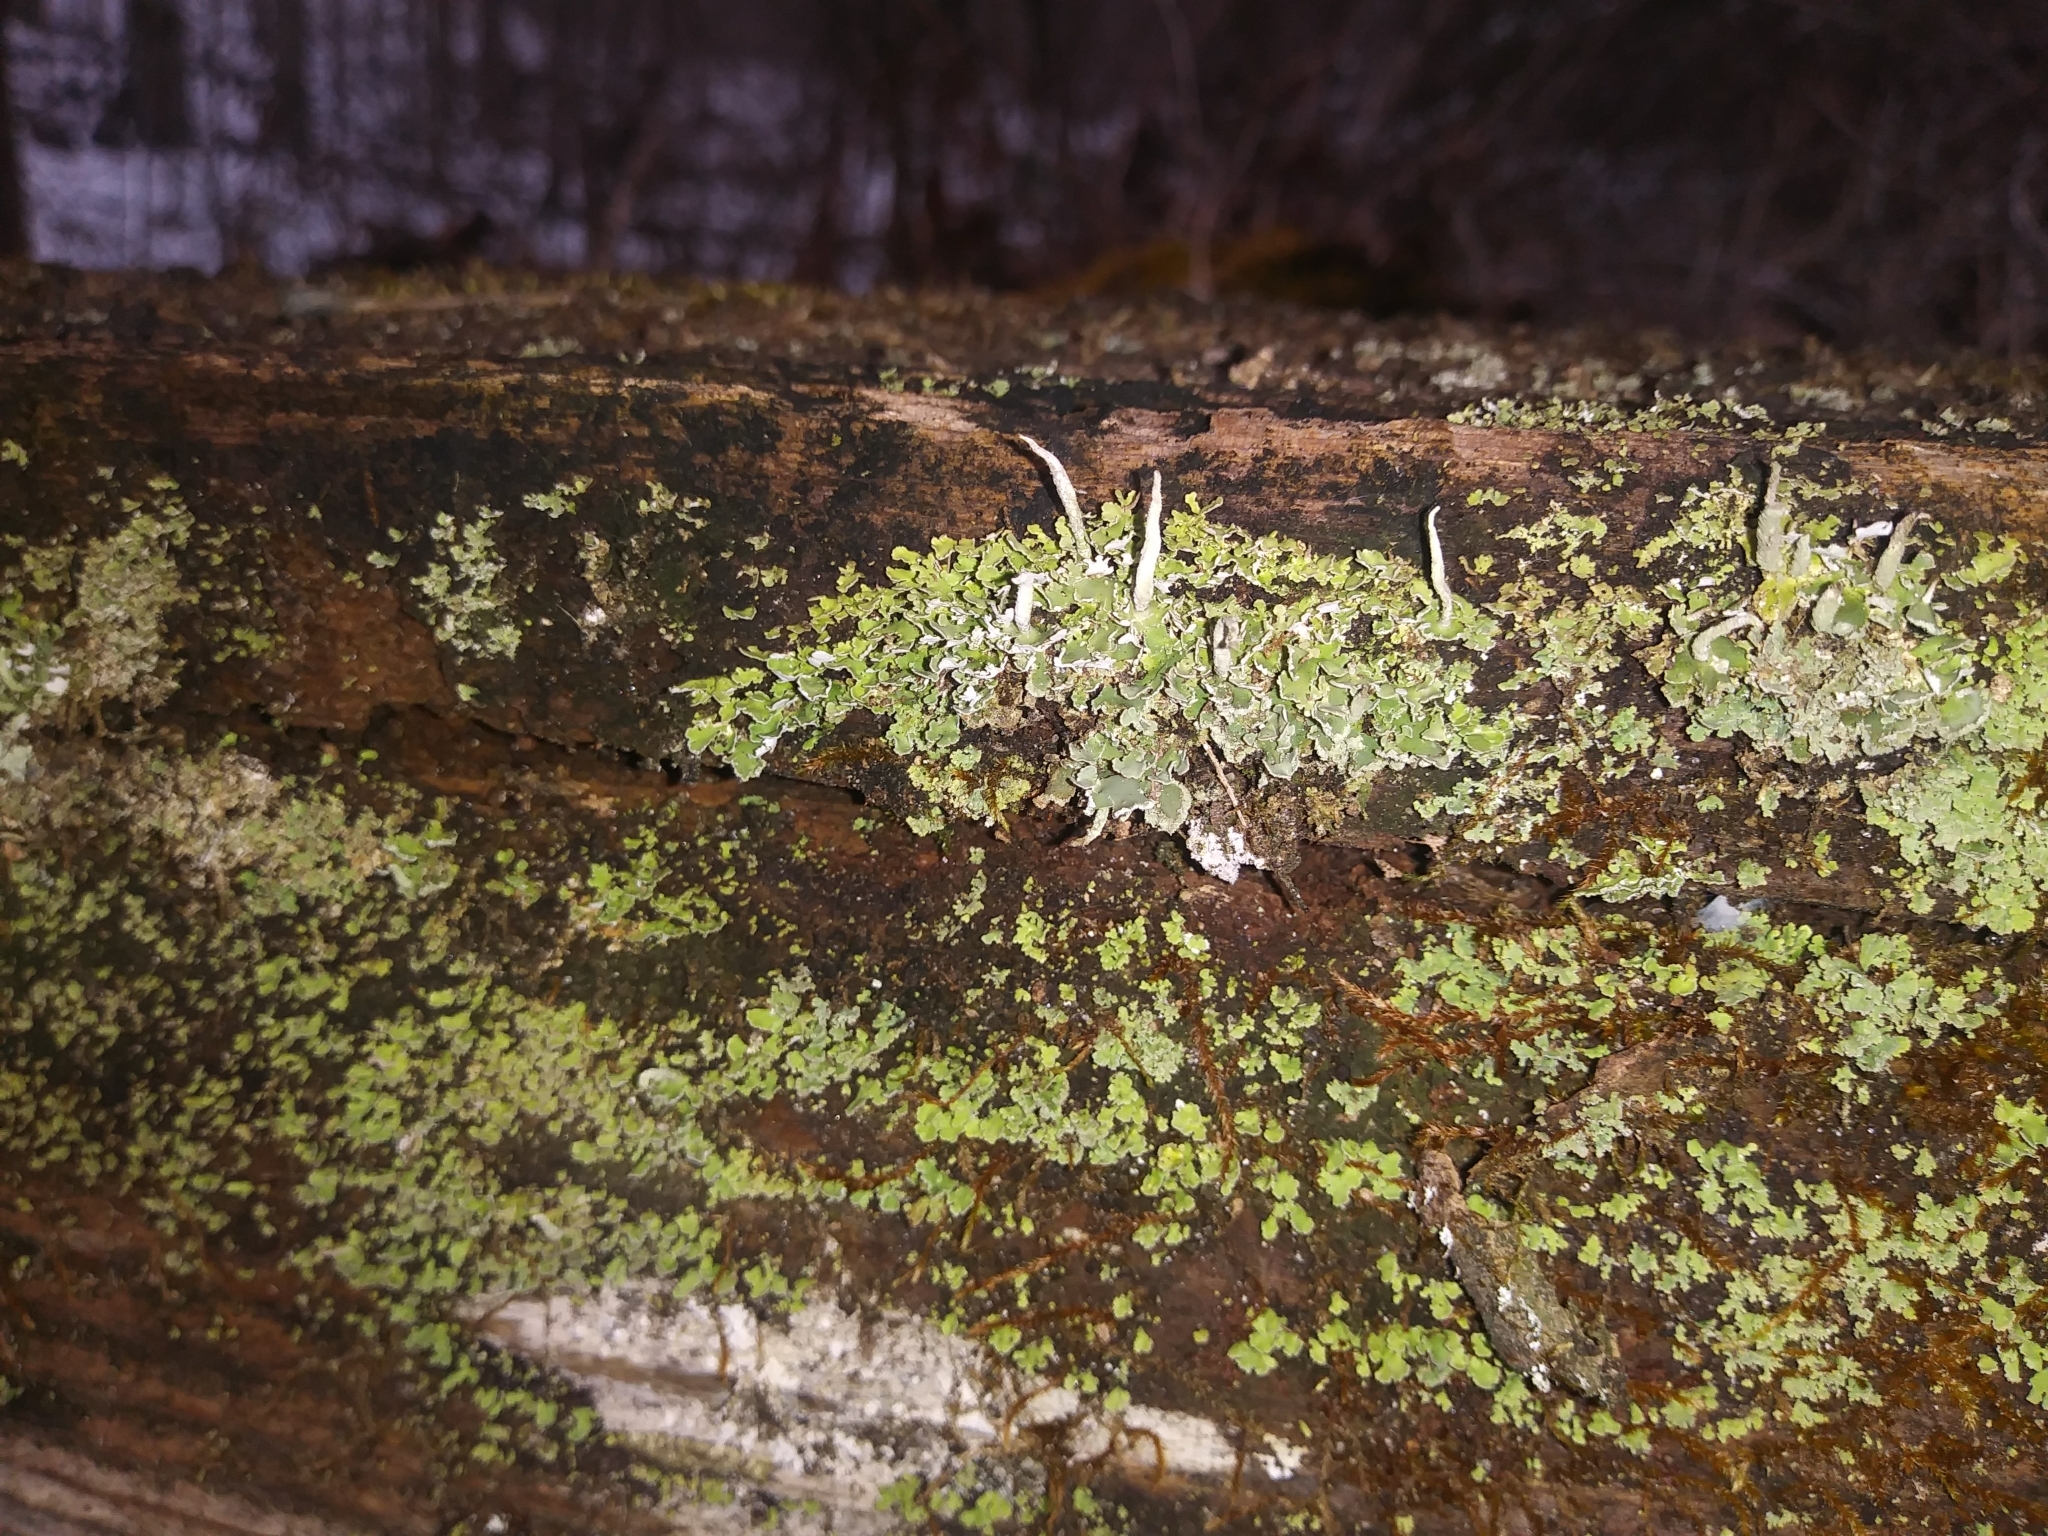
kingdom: Fungi
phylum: Ascomycota
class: Lecanoromycetes
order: Lecanorales
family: Cladoniaceae
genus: Cladonia
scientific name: Cladonia coniocraea
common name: Common powderhorn
